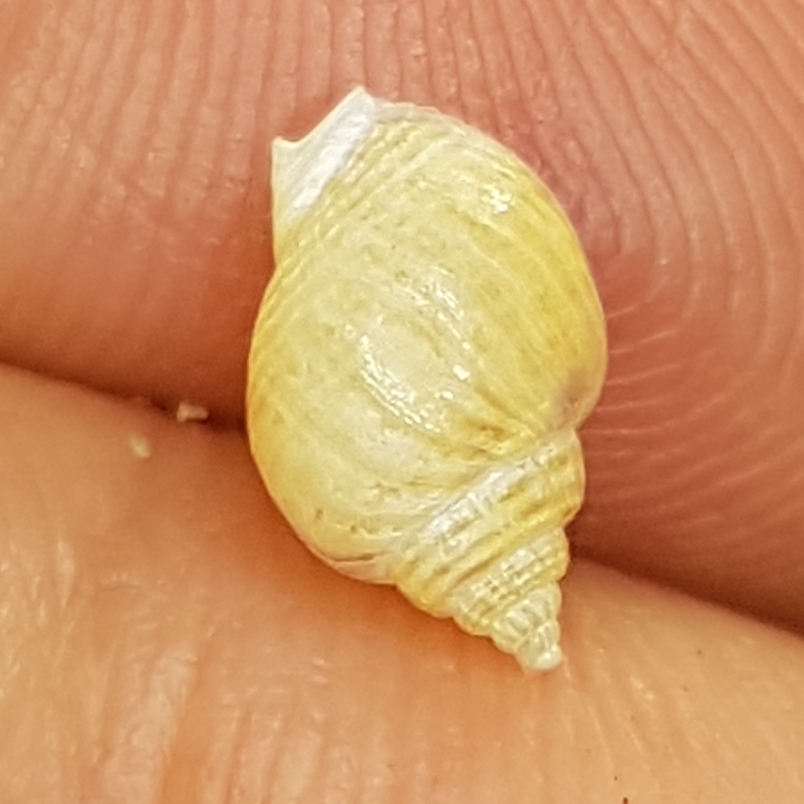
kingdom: Animalia
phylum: Mollusca
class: Gastropoda
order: Neogastropoda
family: Nassariidae
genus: Tritia
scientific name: Tritia mutabilis
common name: Mutable nassa
